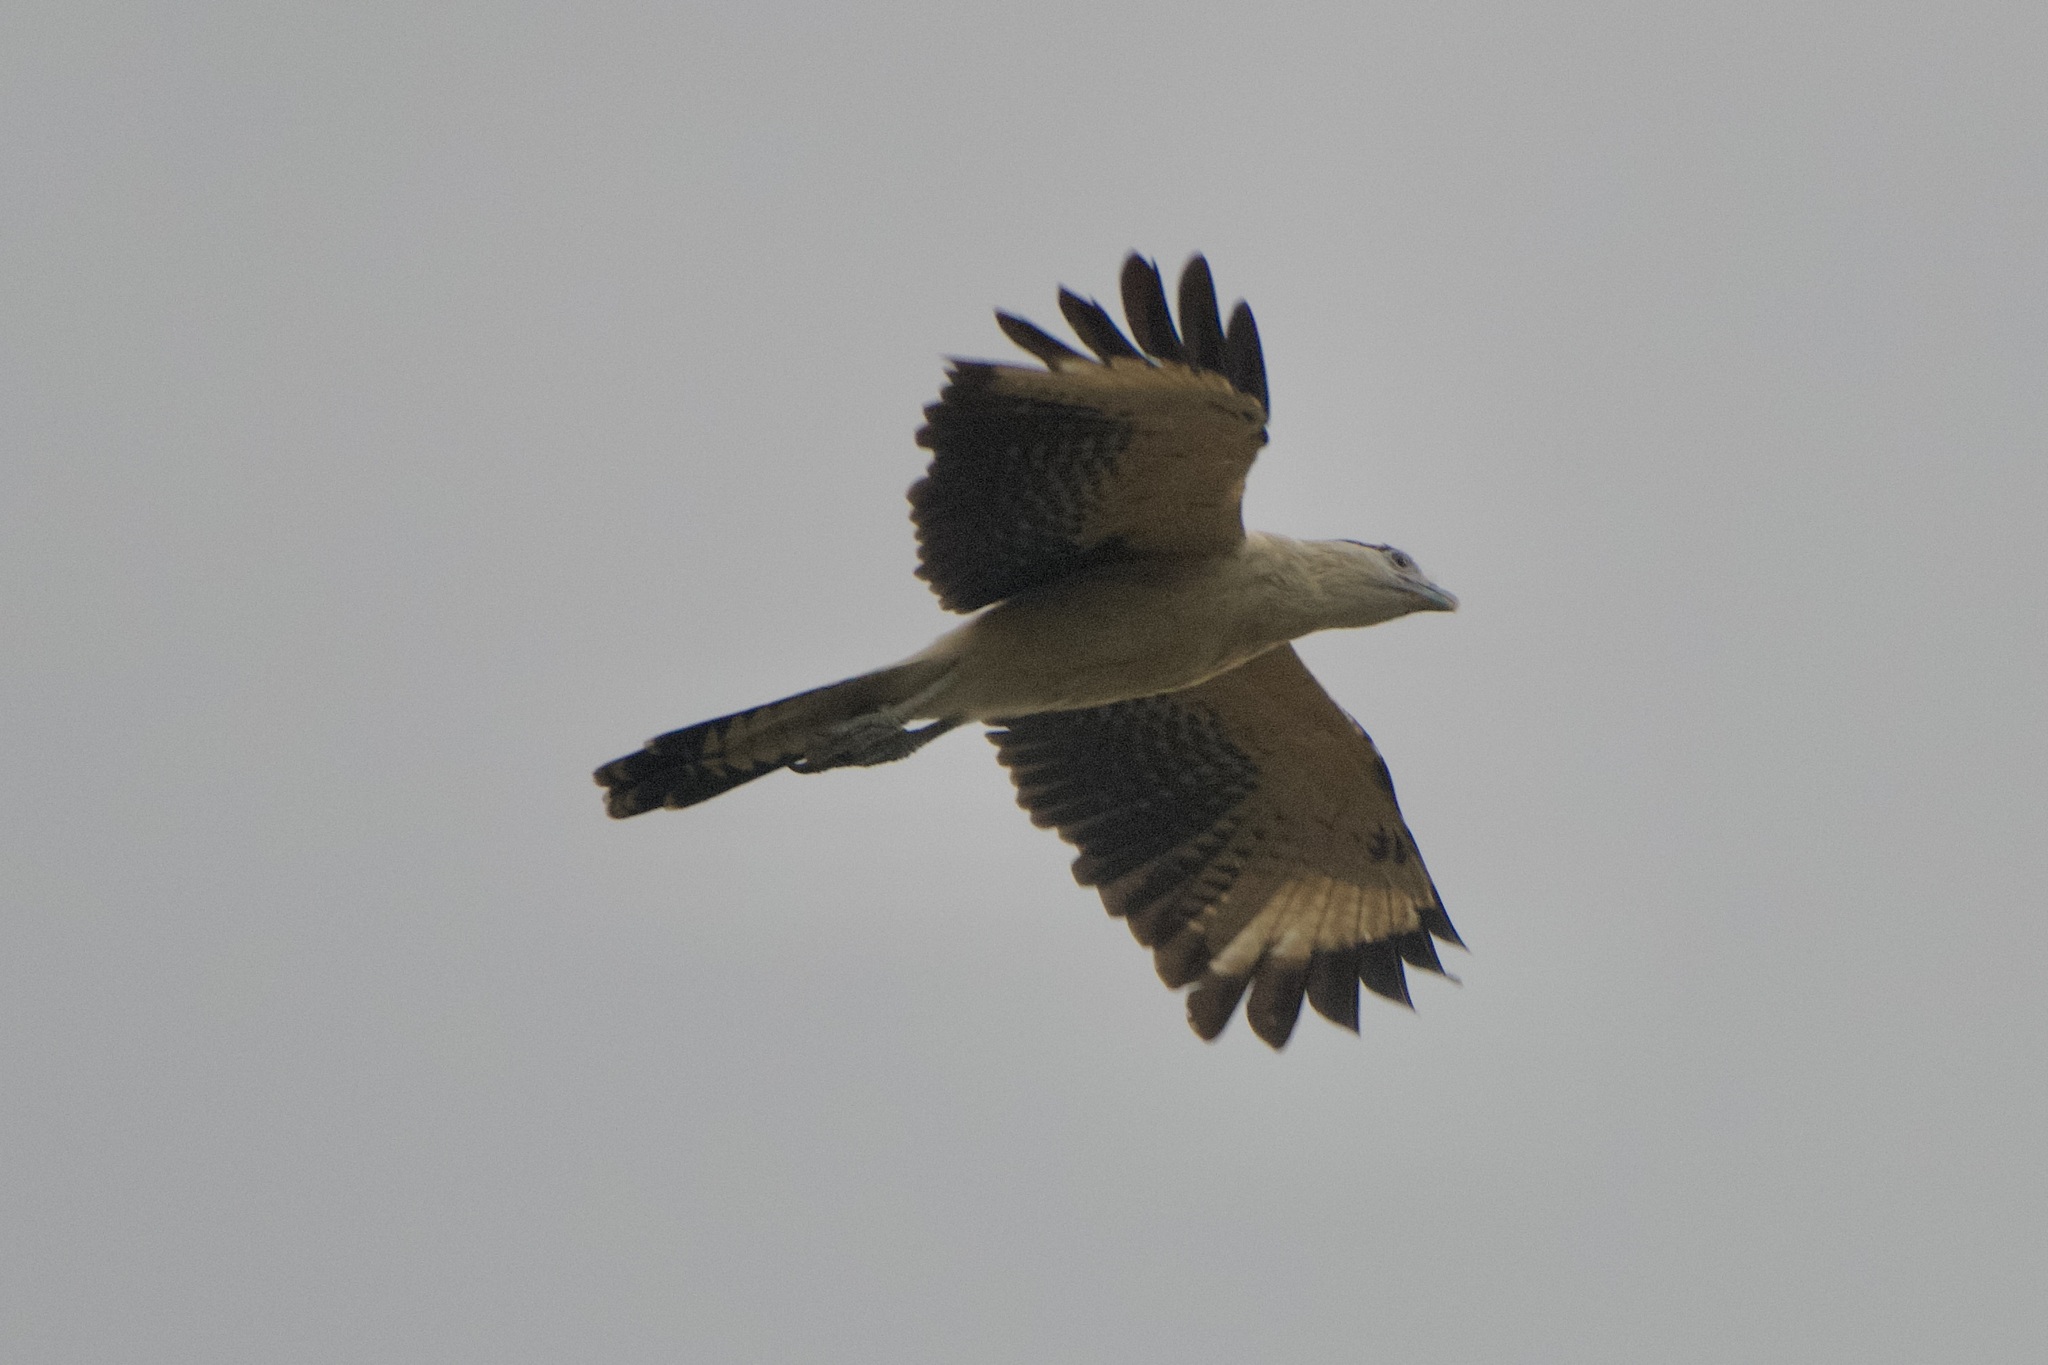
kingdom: Animalia
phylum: Chordata
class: Aves
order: Falconiformes
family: Falconidae
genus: Daptrius
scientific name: Daptrius
